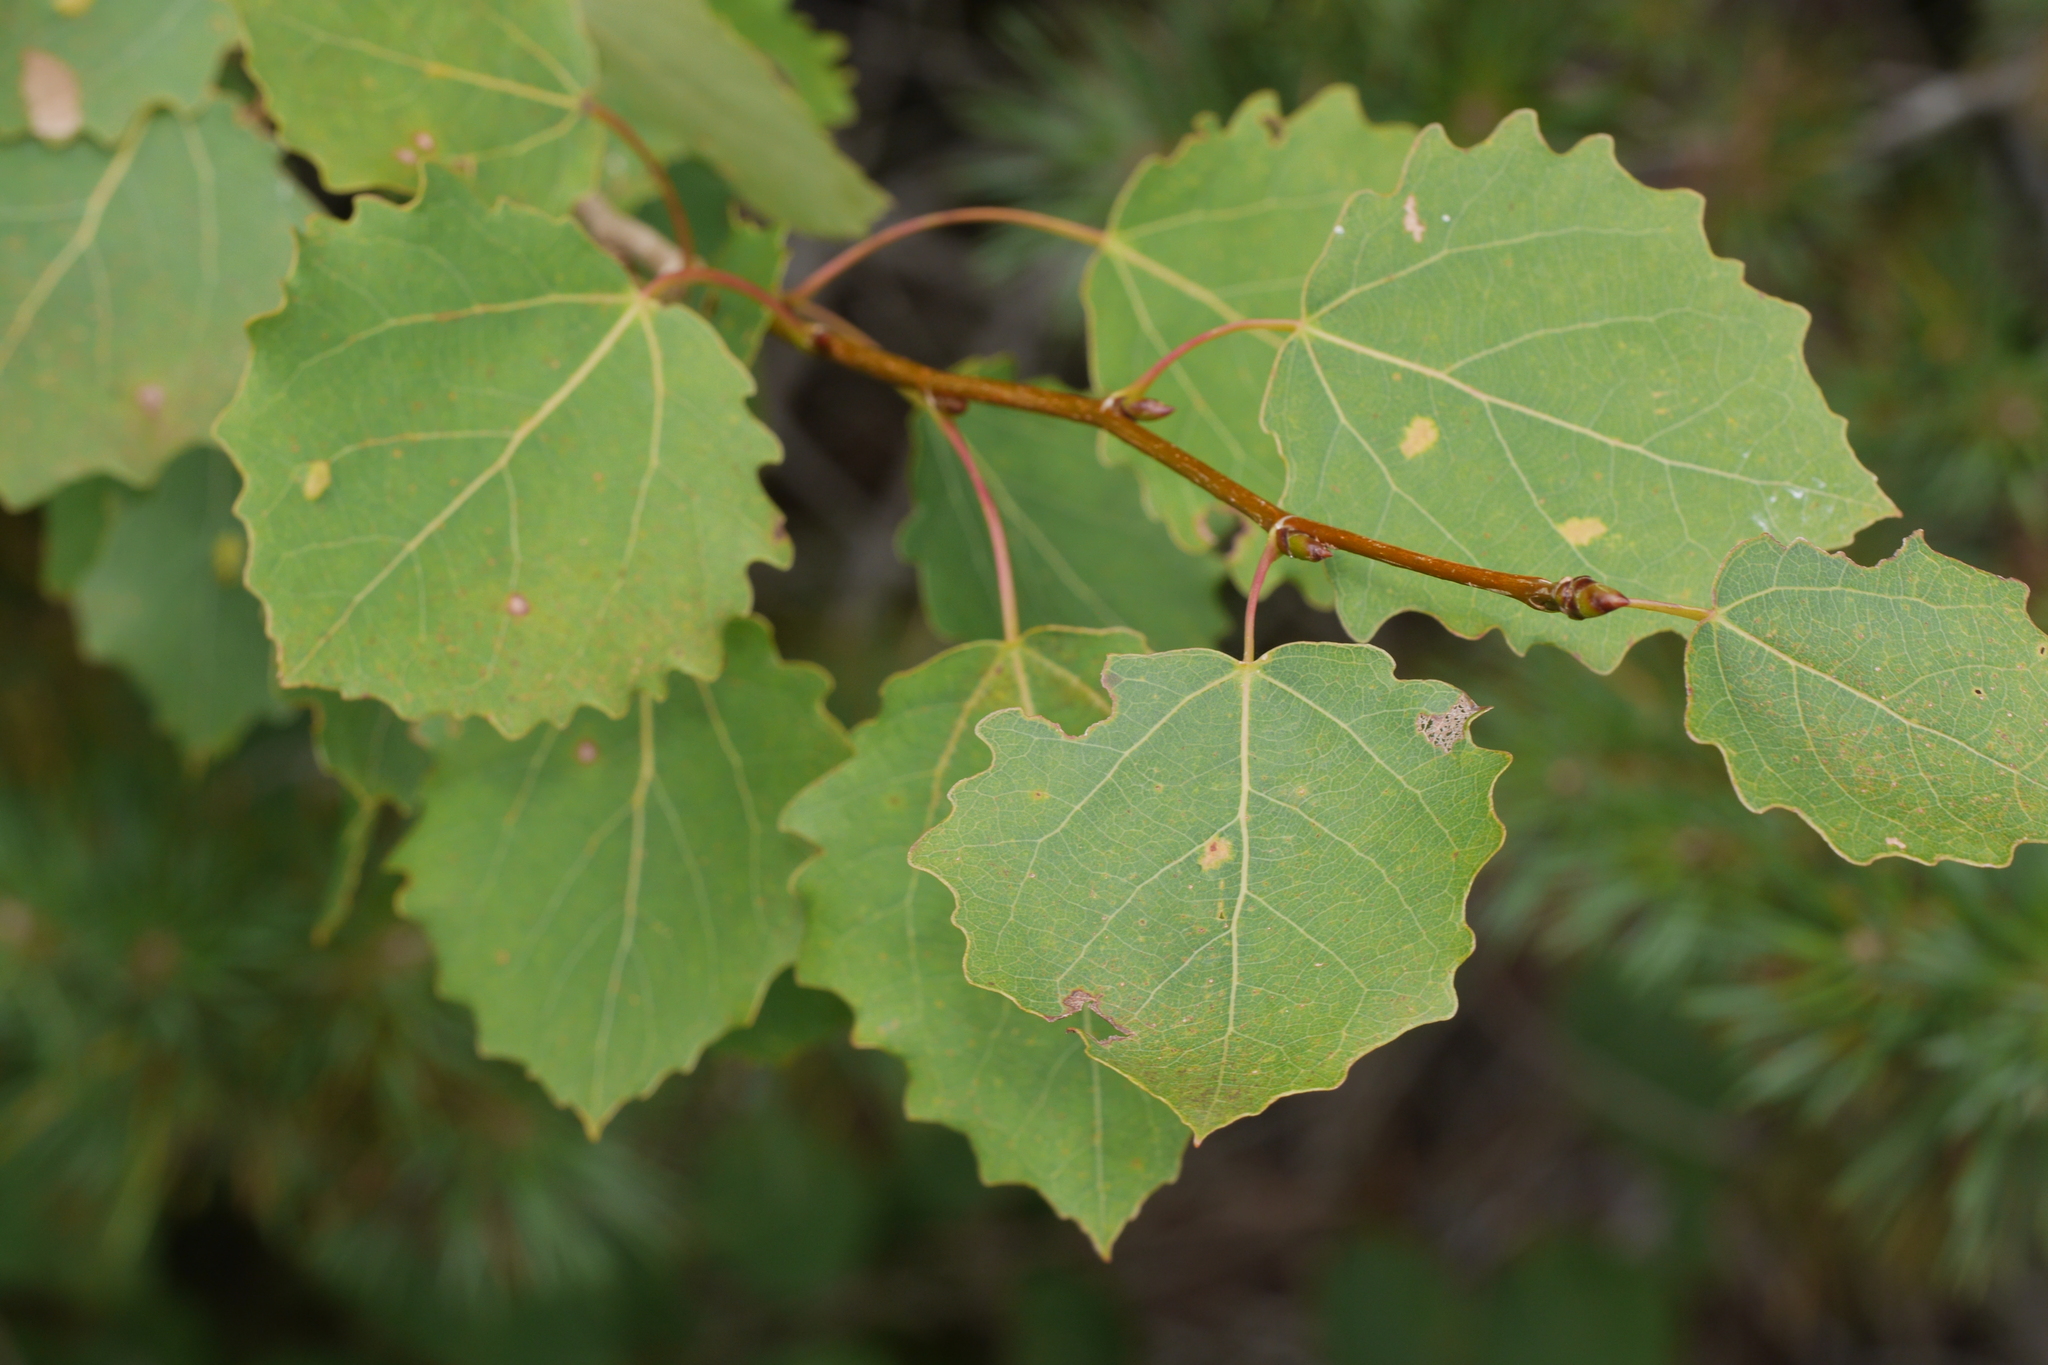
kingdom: Plantae
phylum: Tracheophyta
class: Magnoliopsida
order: Malpighiales
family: Salicaceae
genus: Populus
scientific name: Populus tremula
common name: European aspen
